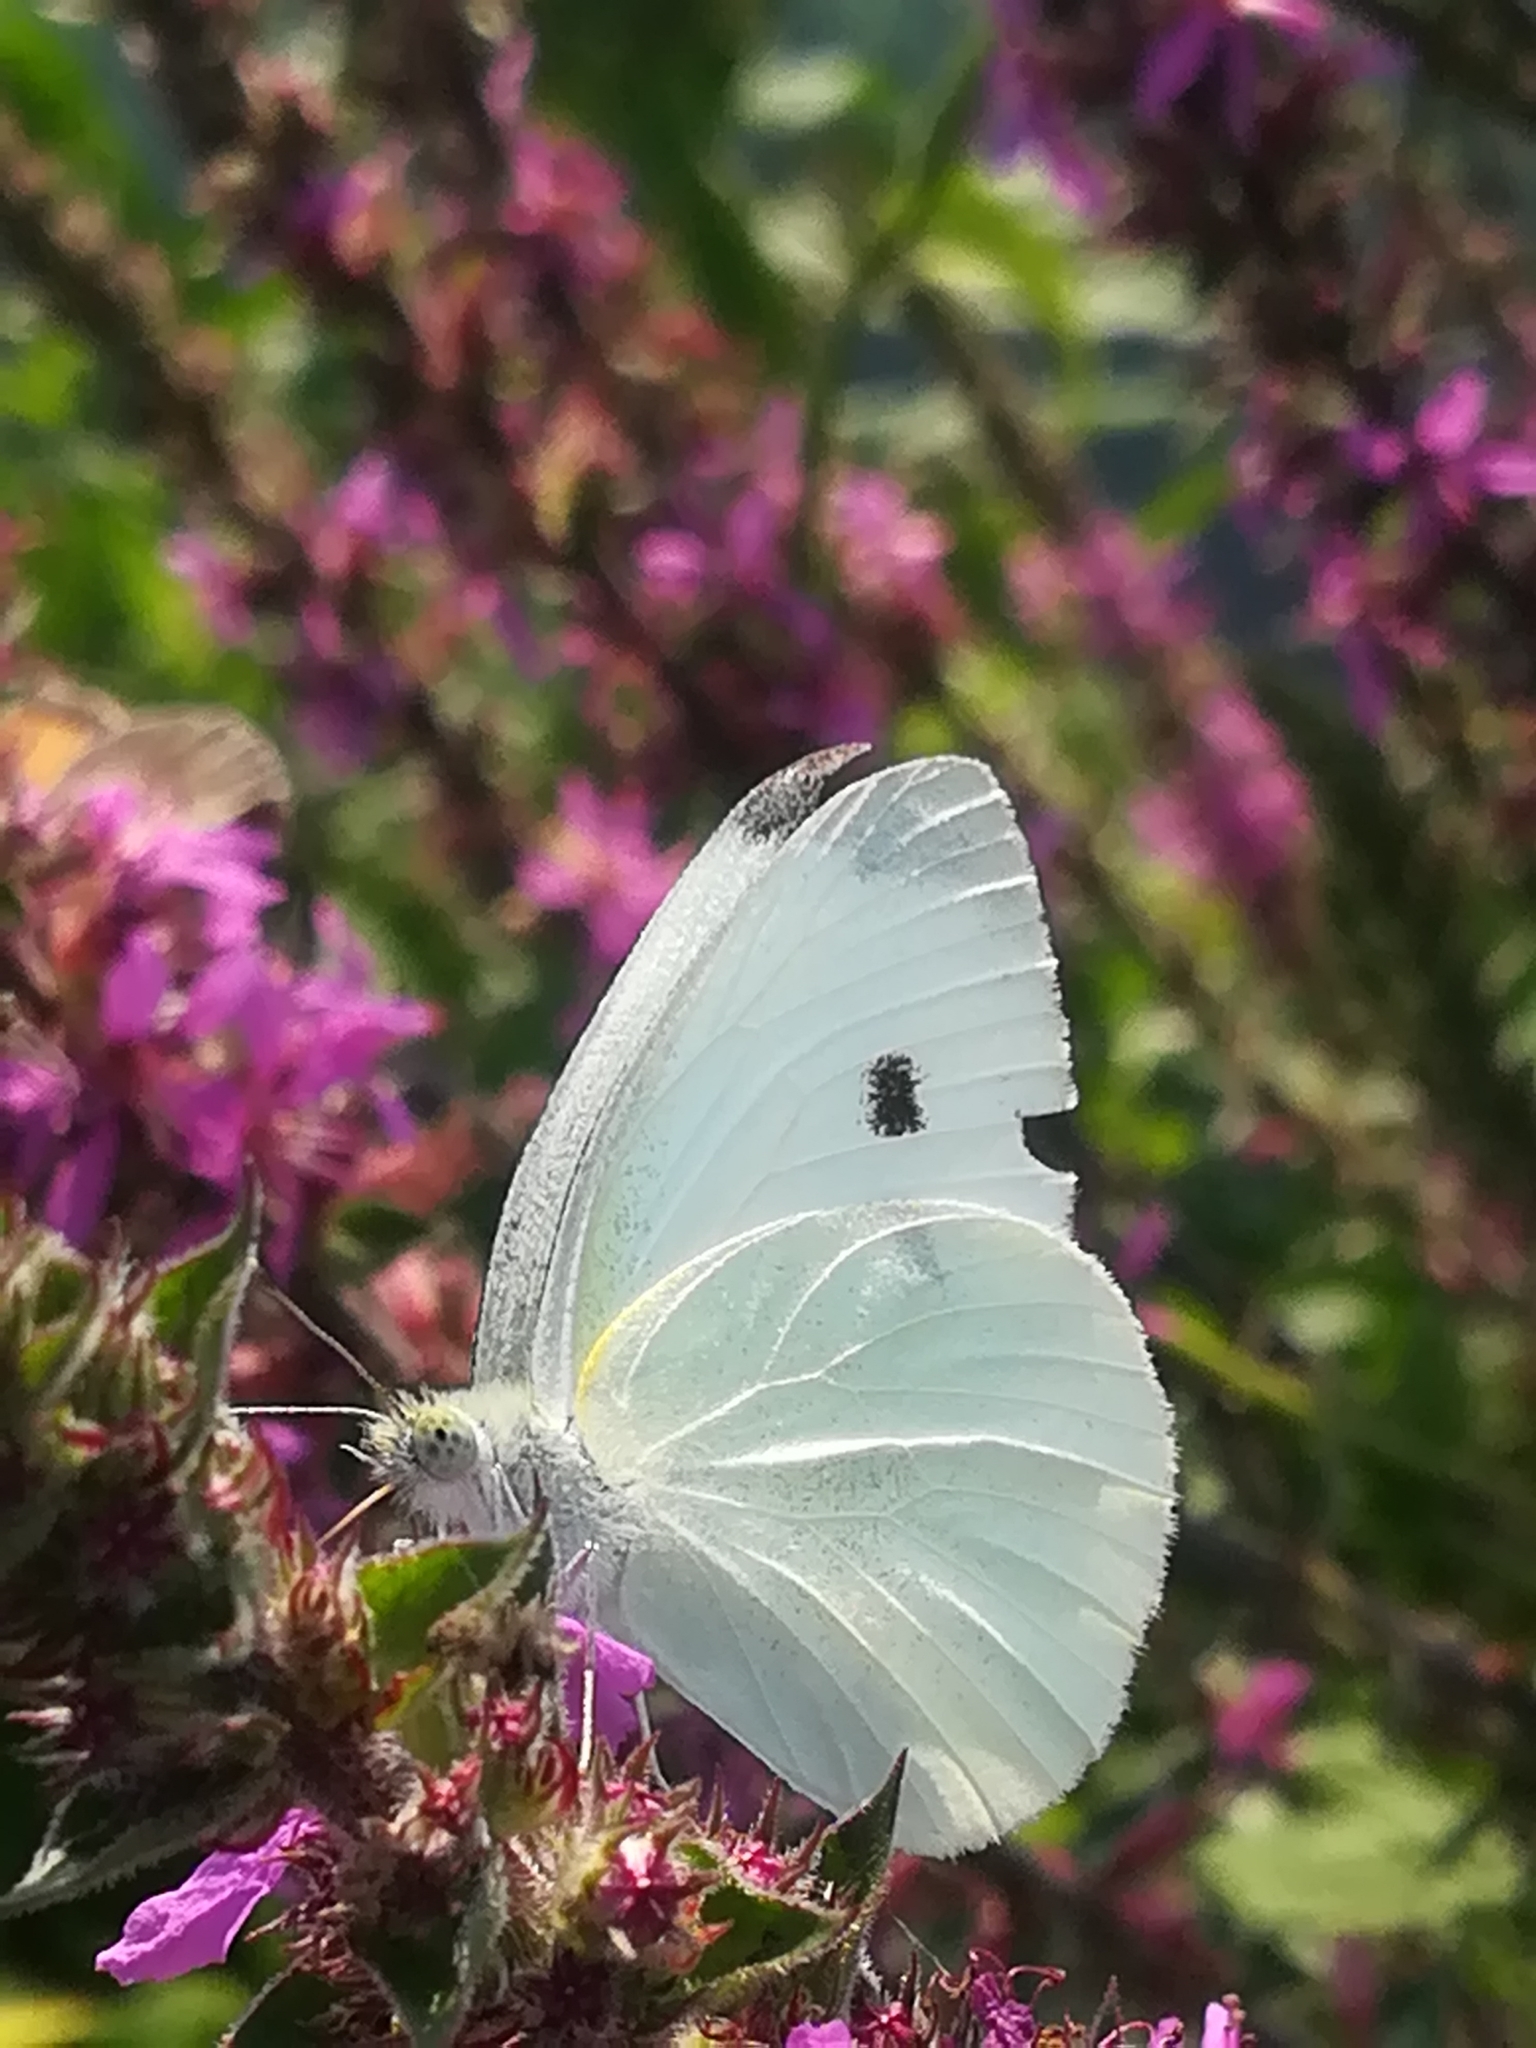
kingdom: Animalia
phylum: Arthropoda
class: Insecta
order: Lepidoptera
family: Pieridae
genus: Pieris
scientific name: Pieris rapae
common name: Small white
